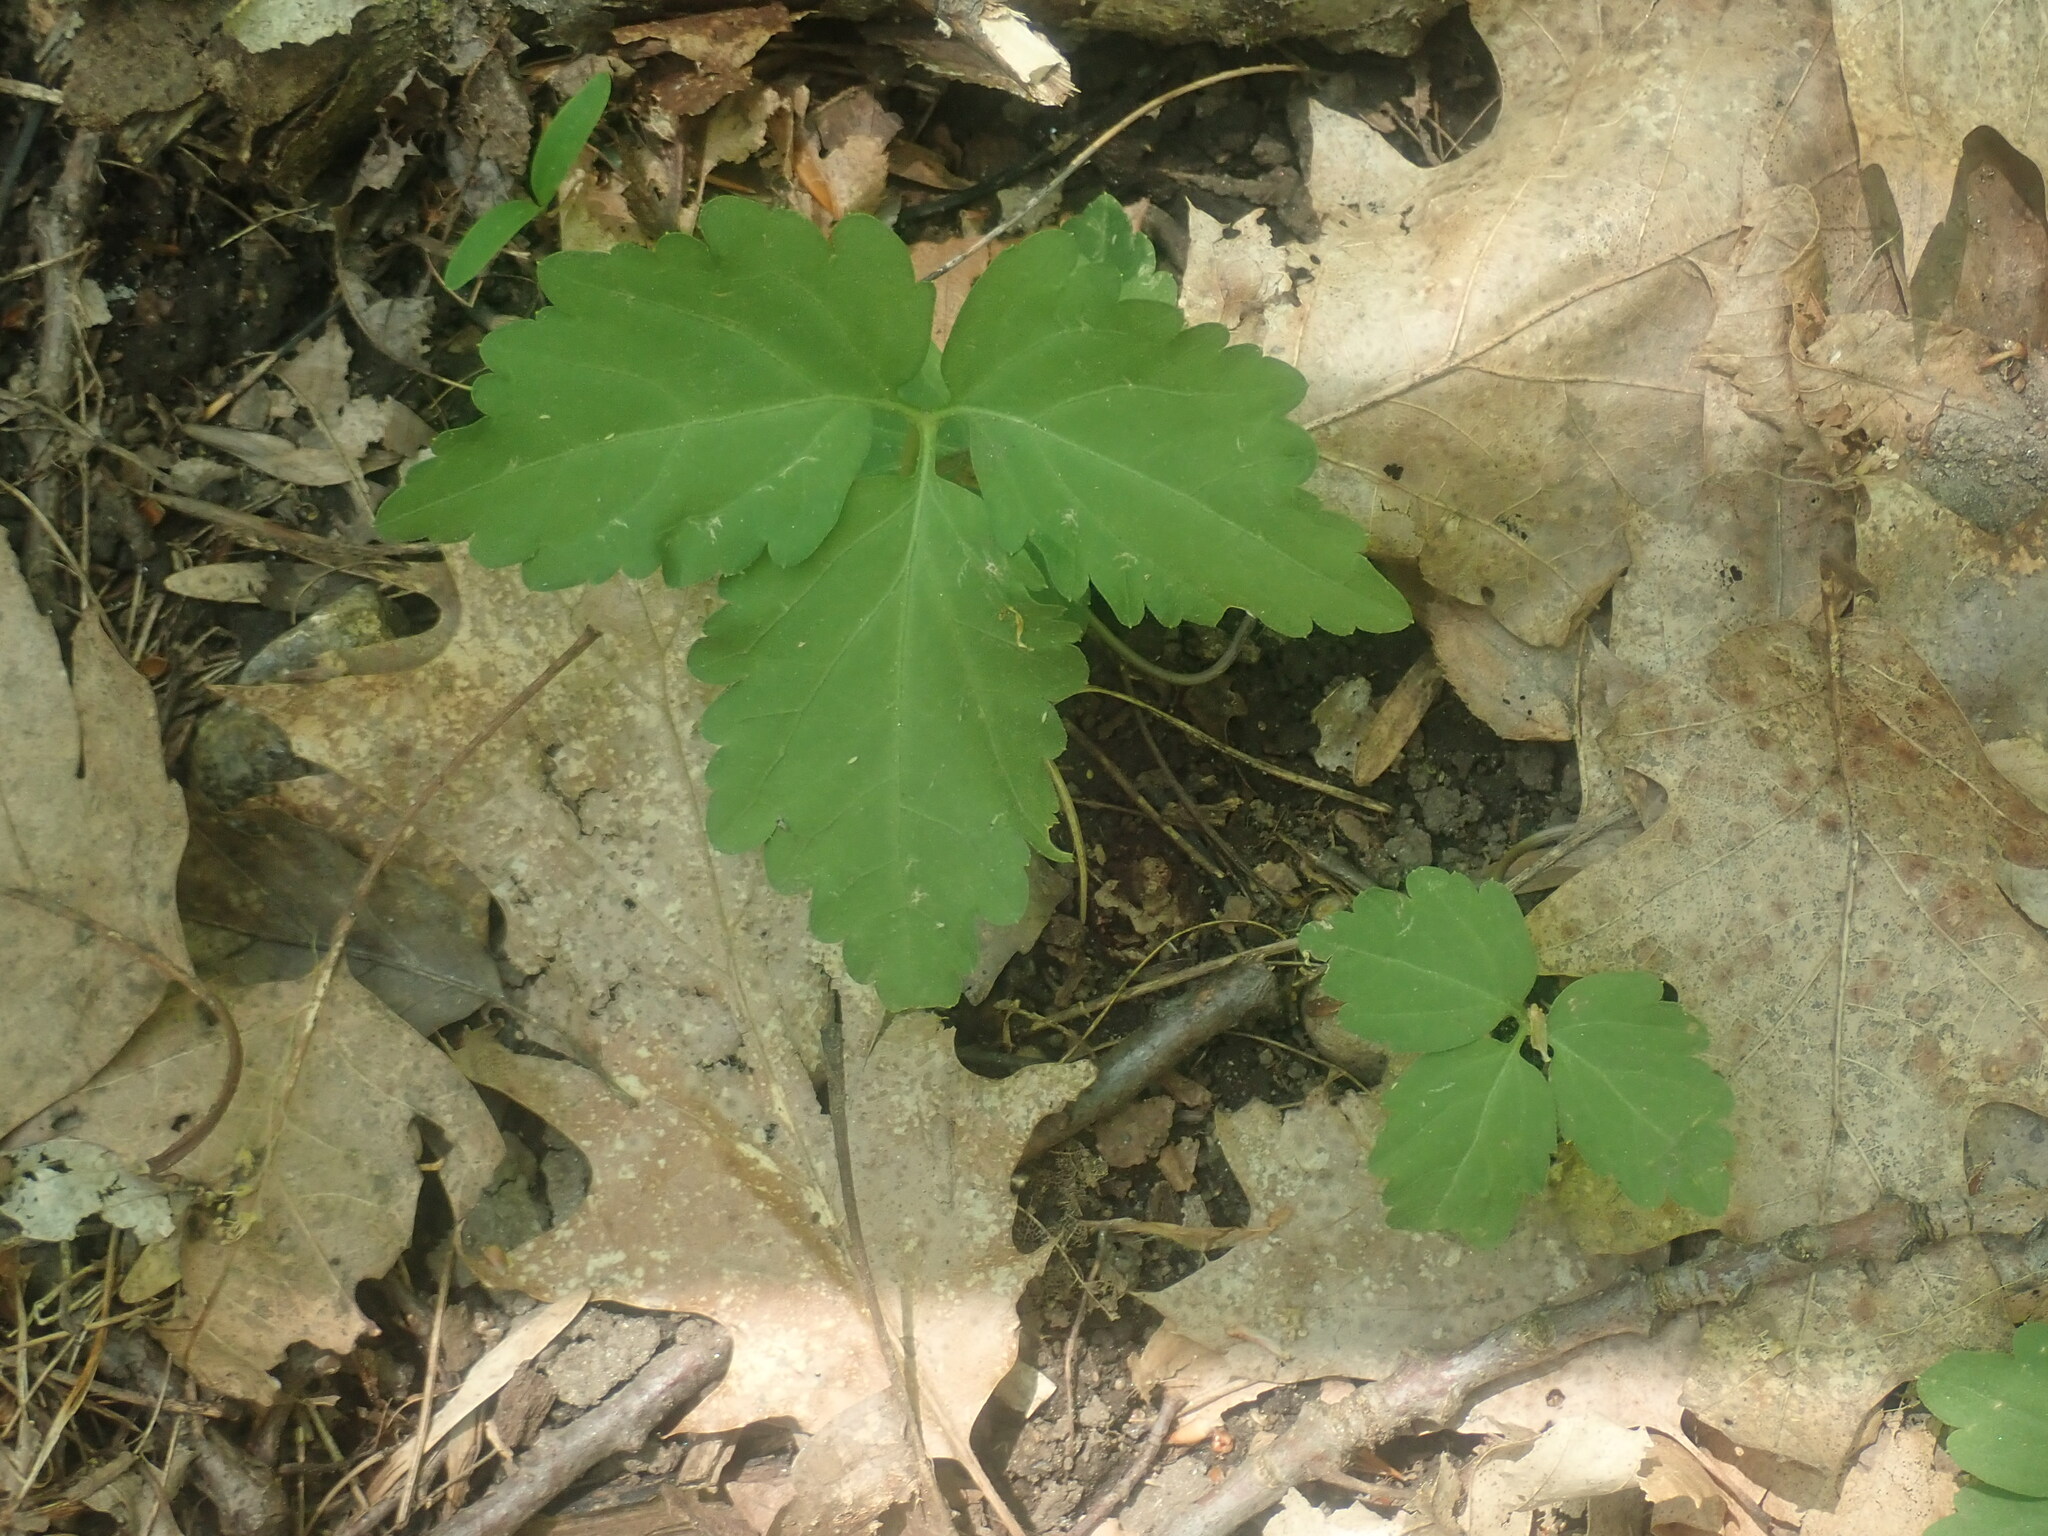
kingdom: Plantae
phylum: Tracheophyta
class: Magnoliopsida
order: Brassicales
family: Brassicaceae
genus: Cardamine
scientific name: Cardamine diphylla
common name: Broad-leaved toothwort
